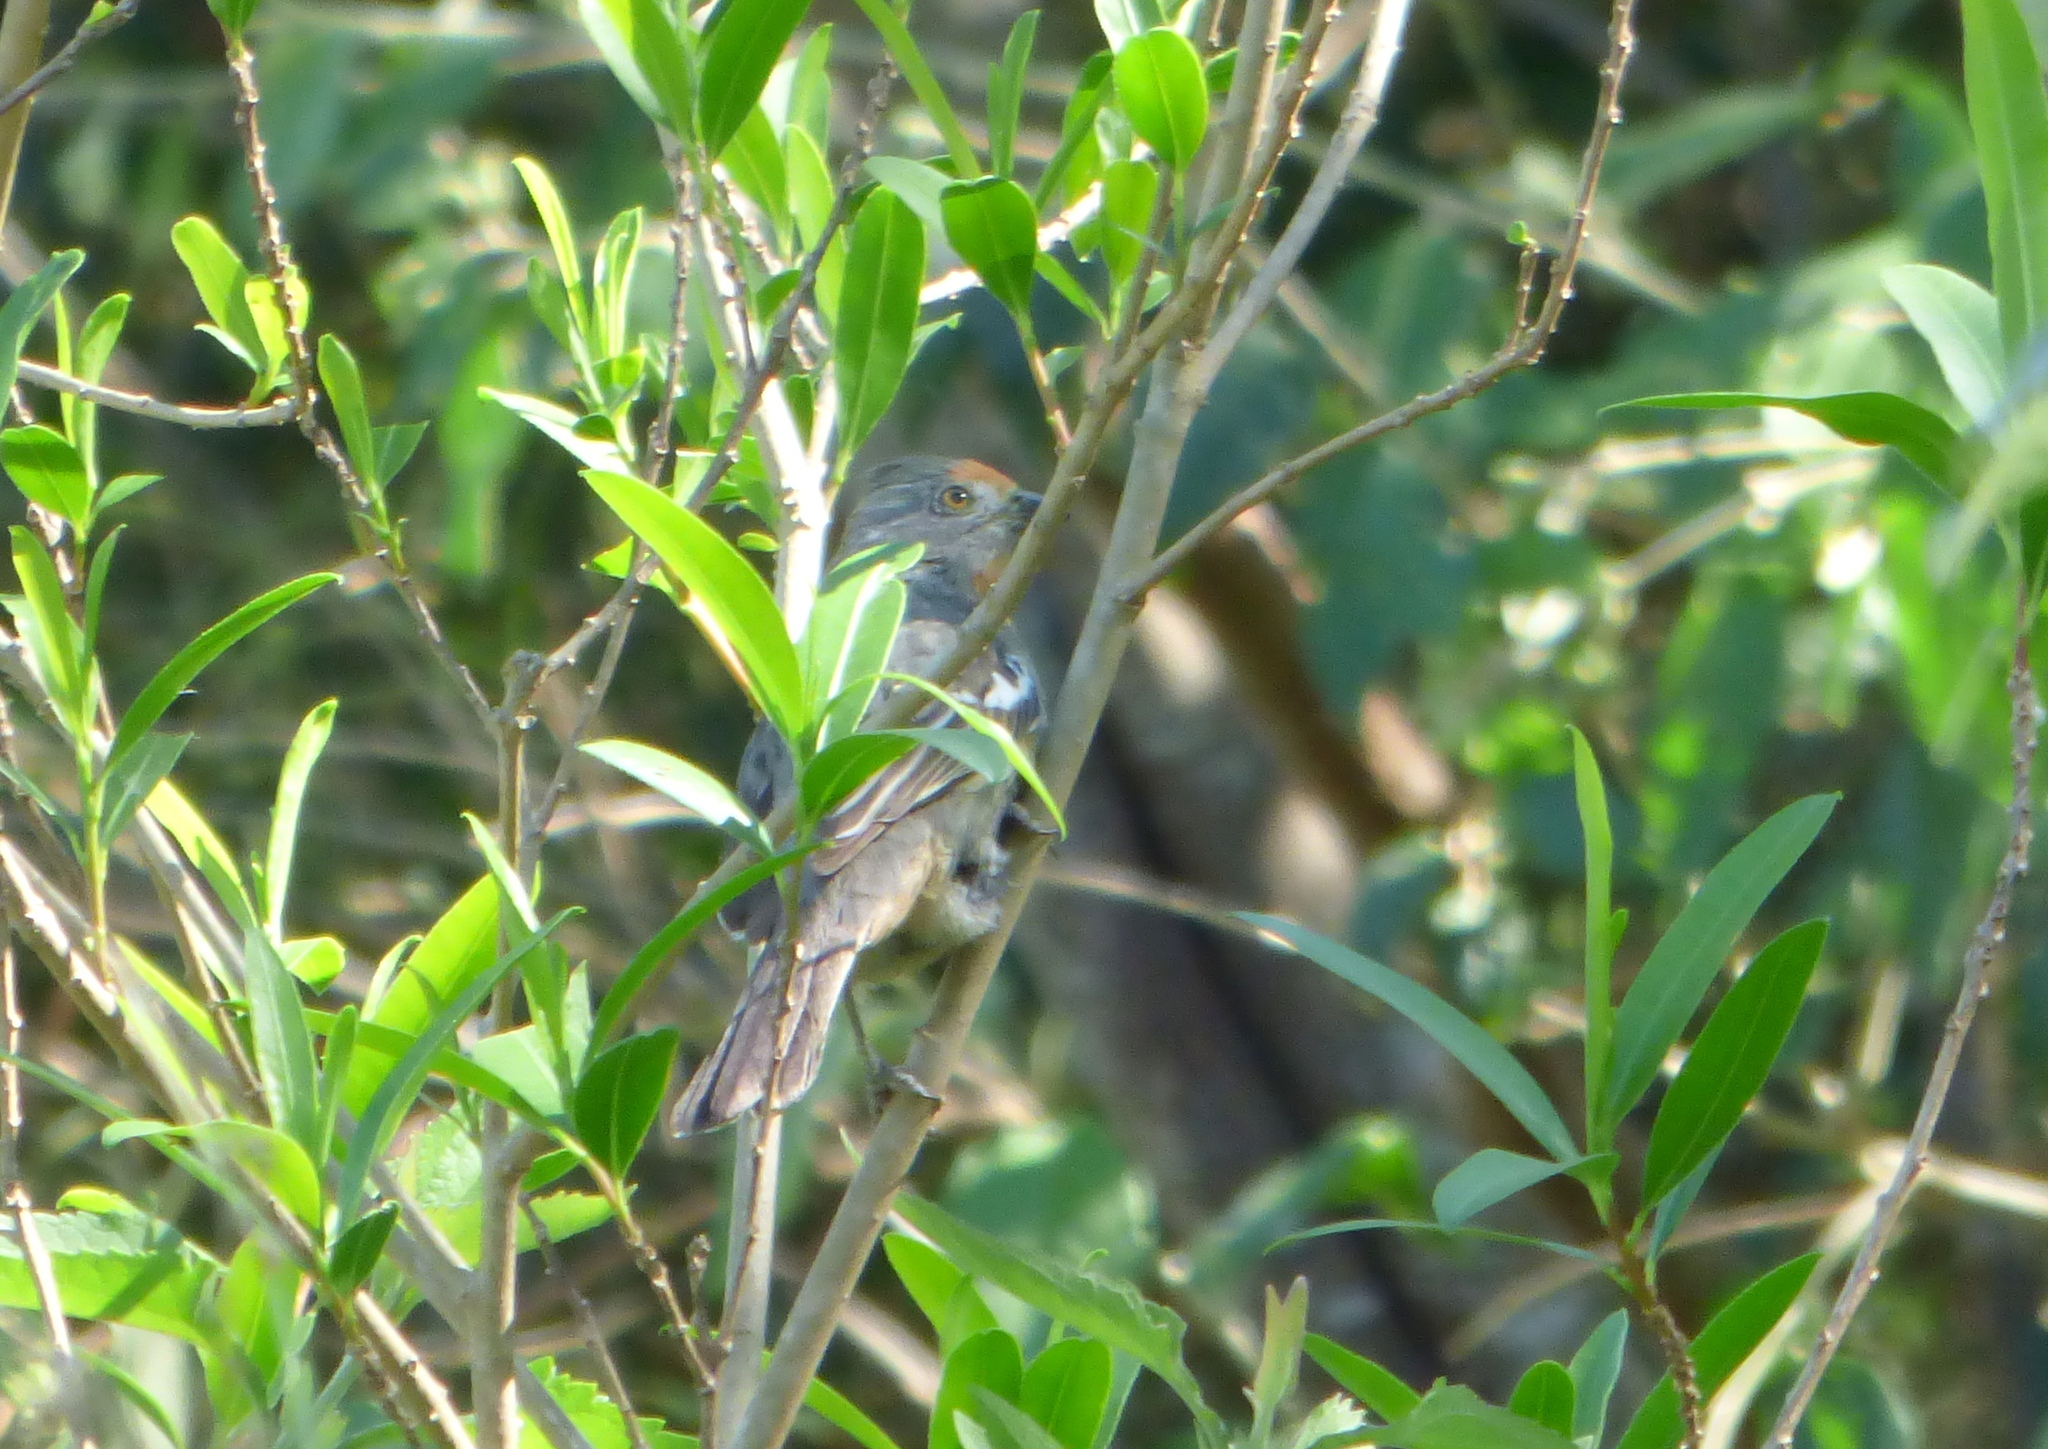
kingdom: Animalia
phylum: Chordata
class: Aves
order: Passeriformes
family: Cotingidae
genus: Phytotoma
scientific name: Phytotoma rutila
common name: White-tipped plantcutter
